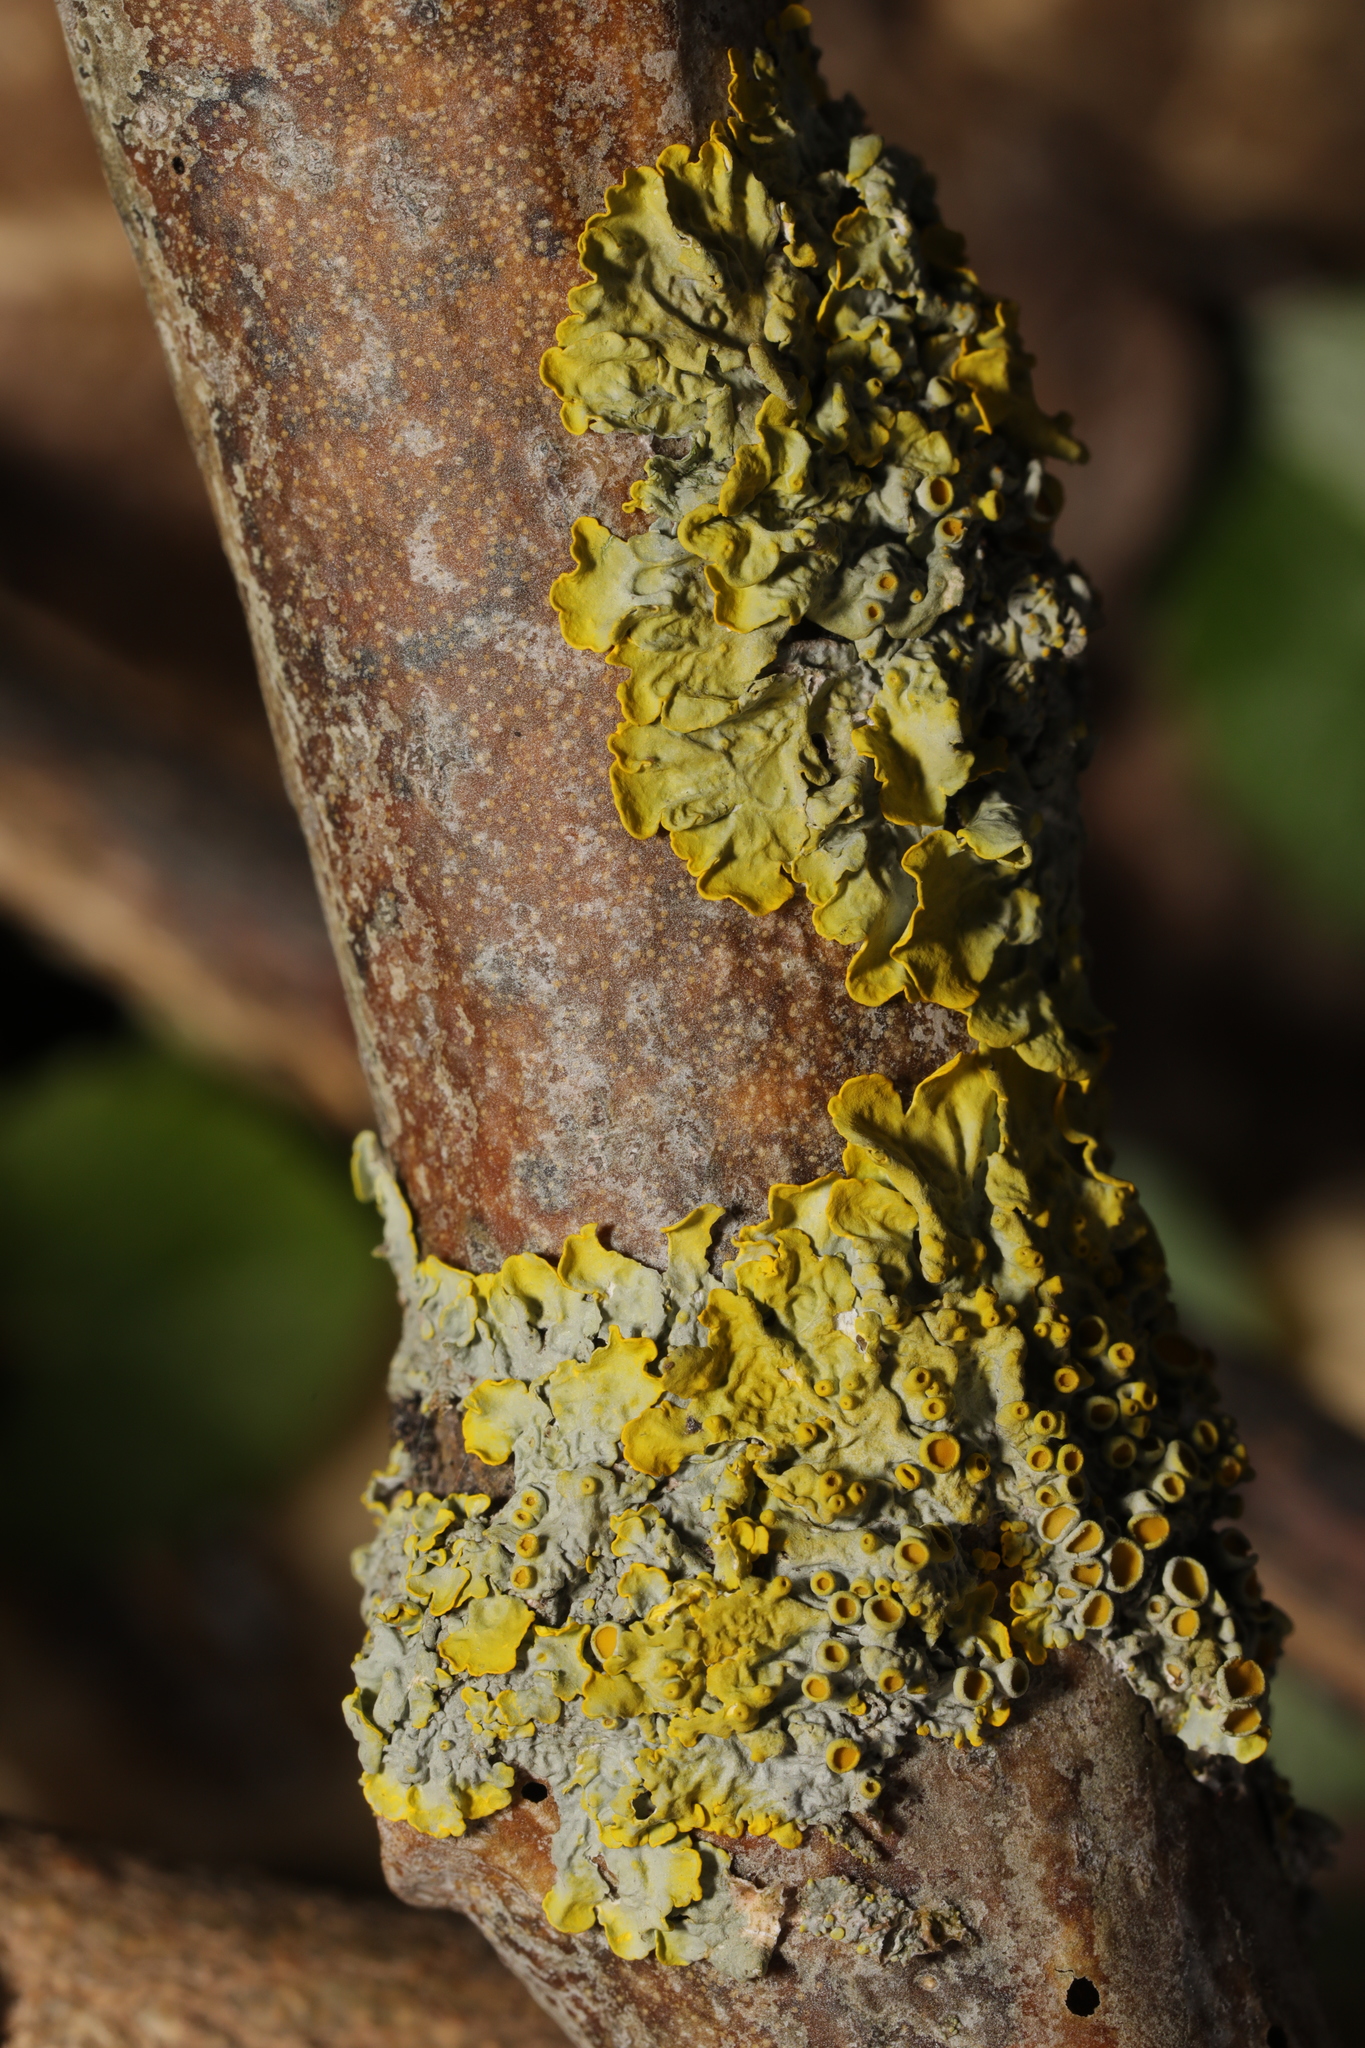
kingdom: Fungi
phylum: Ascomycota
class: Lecanoromycetes
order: Teloschistales
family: Teloschistaceae
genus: Xanthoria
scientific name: Xanthoria parietina
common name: Common orange lichen
